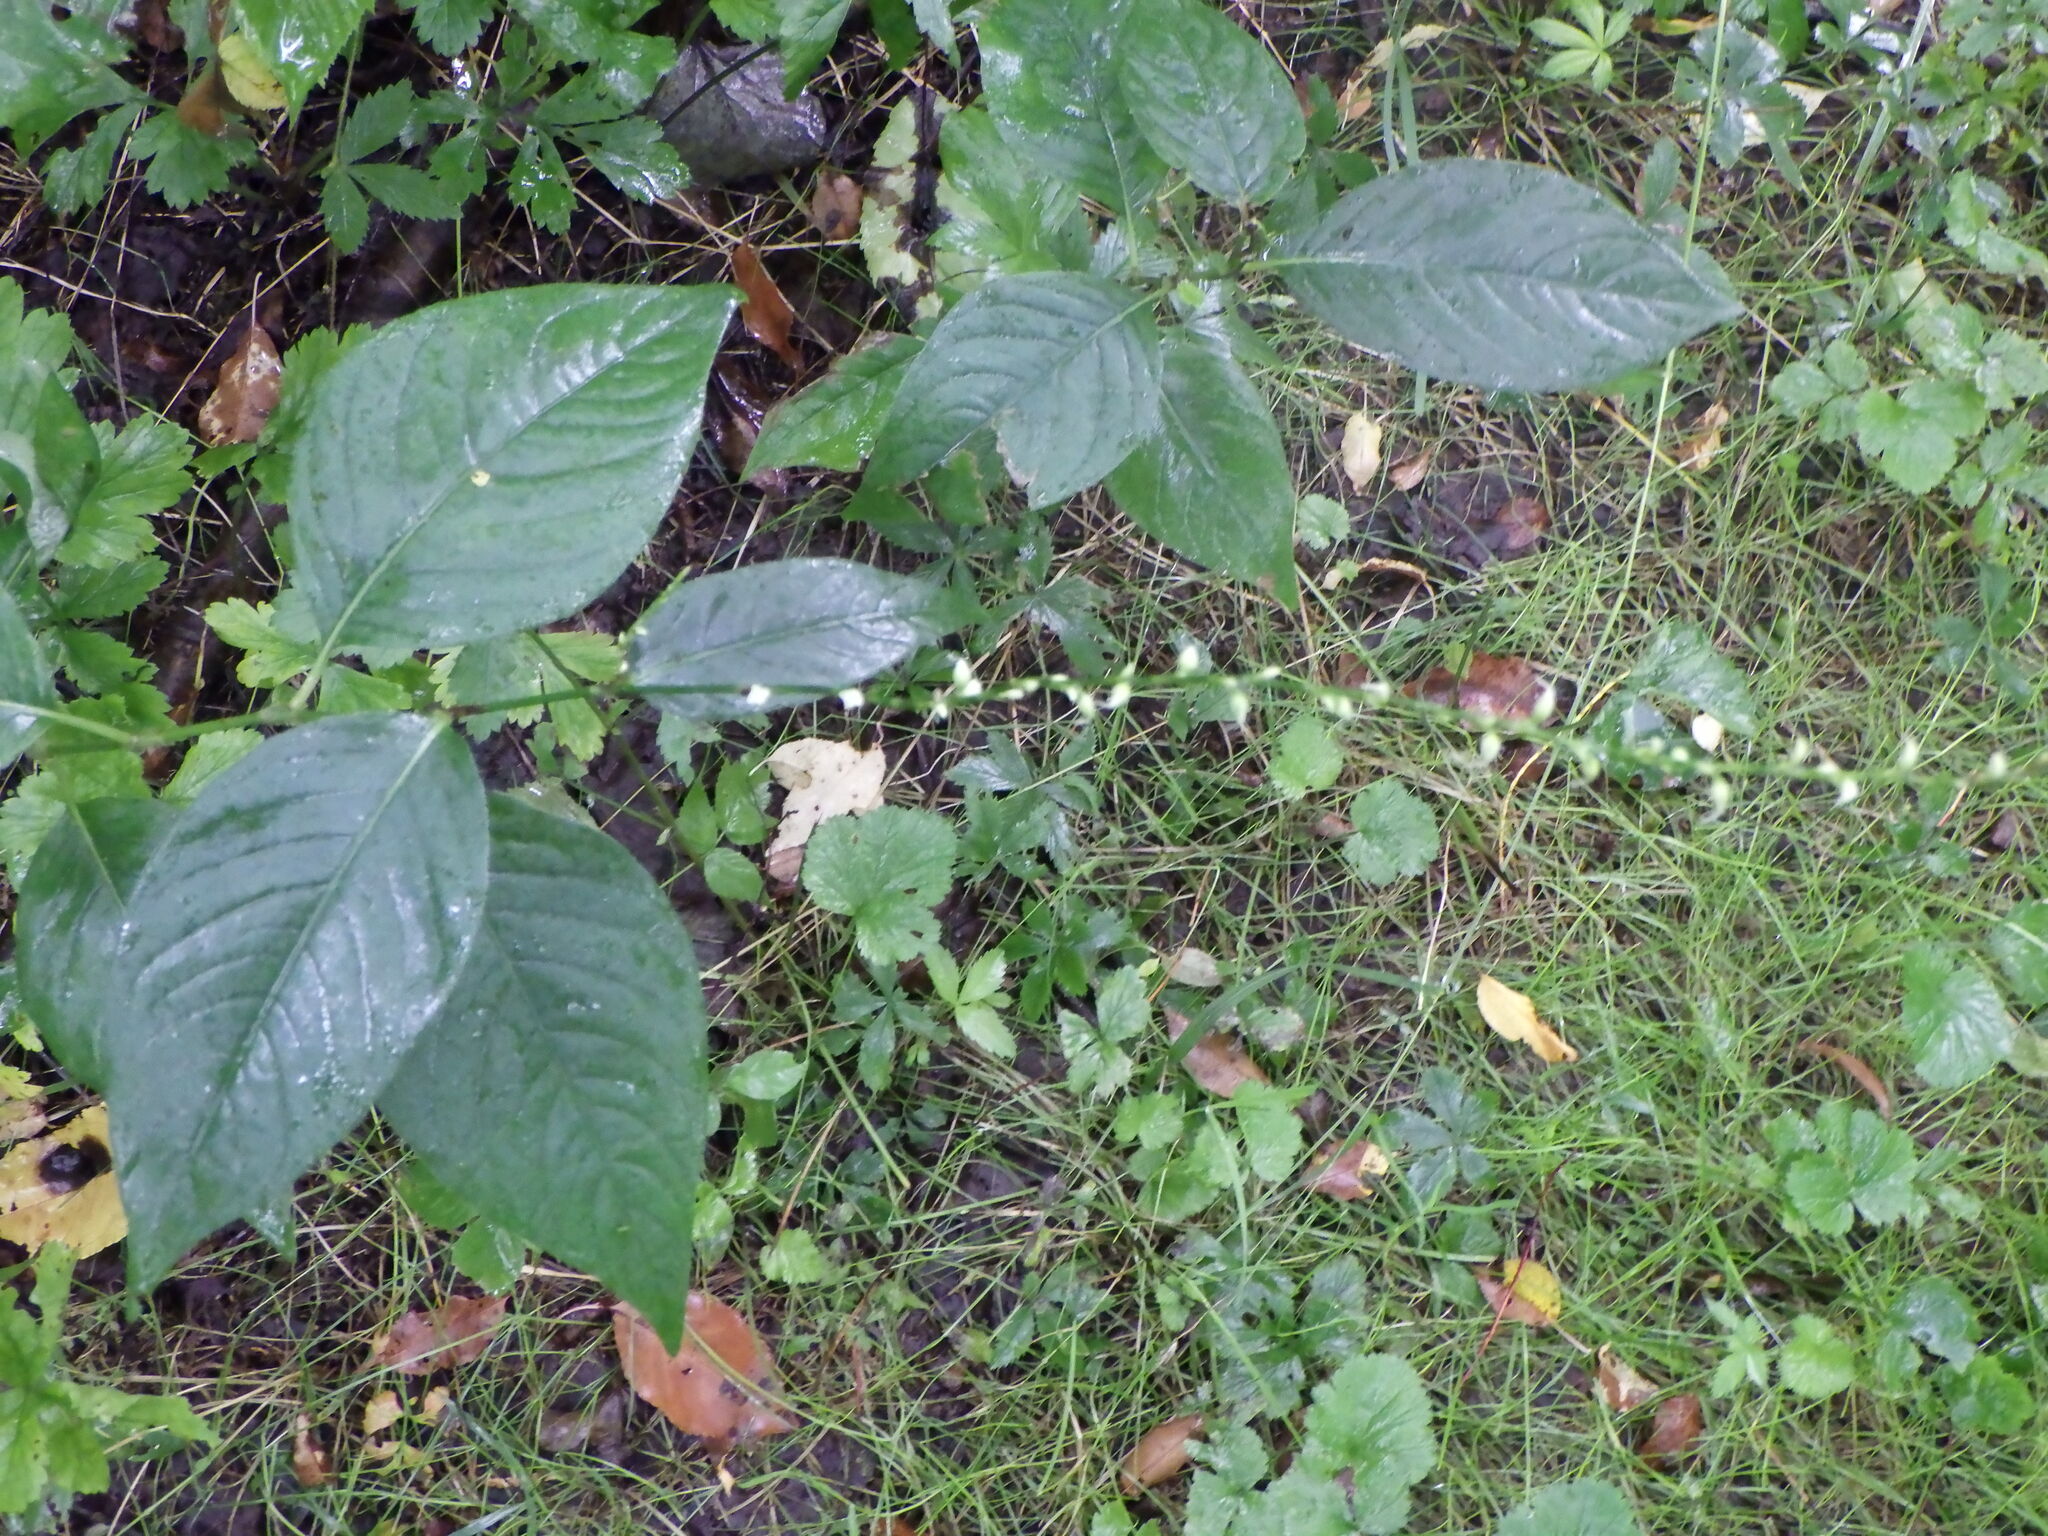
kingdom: Plantae
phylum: Tracheophyta
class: Magnoliopsida
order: Caryophyllales
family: Polygonaceae
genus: Persicaria
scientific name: Persicaria virginiana
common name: Jumpseed
